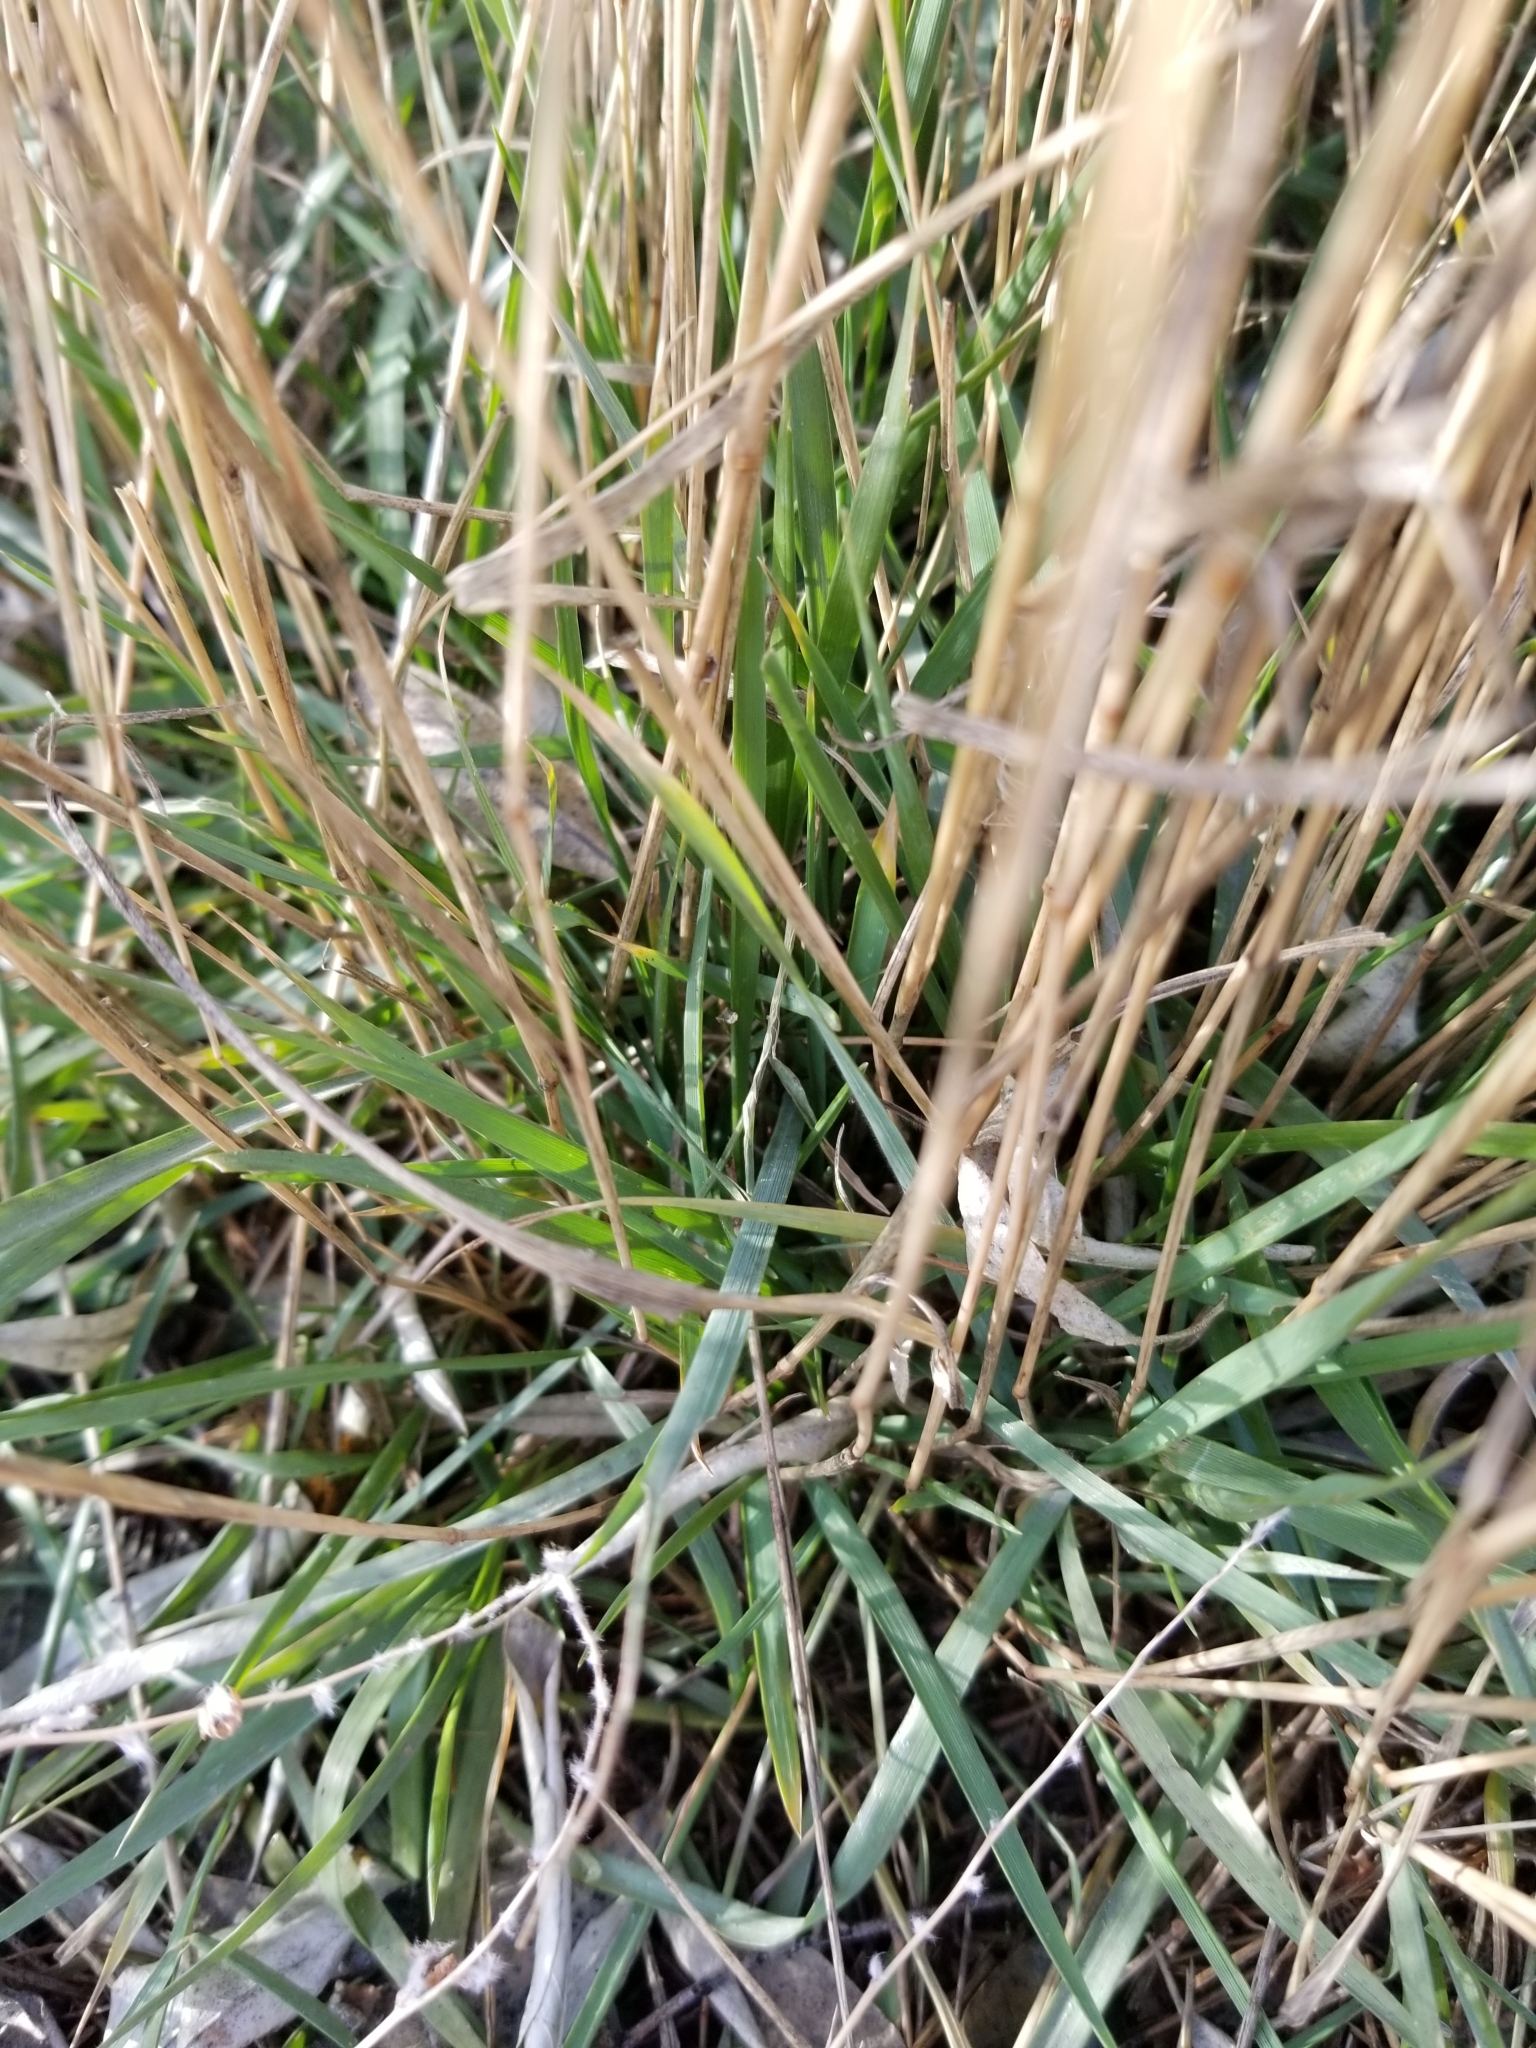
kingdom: Plantae
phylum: Tracheophyta
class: Liliopsida
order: Poales
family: Poaceae
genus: Agropyron
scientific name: Agropyron cristatum
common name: Crested wheatgrass
